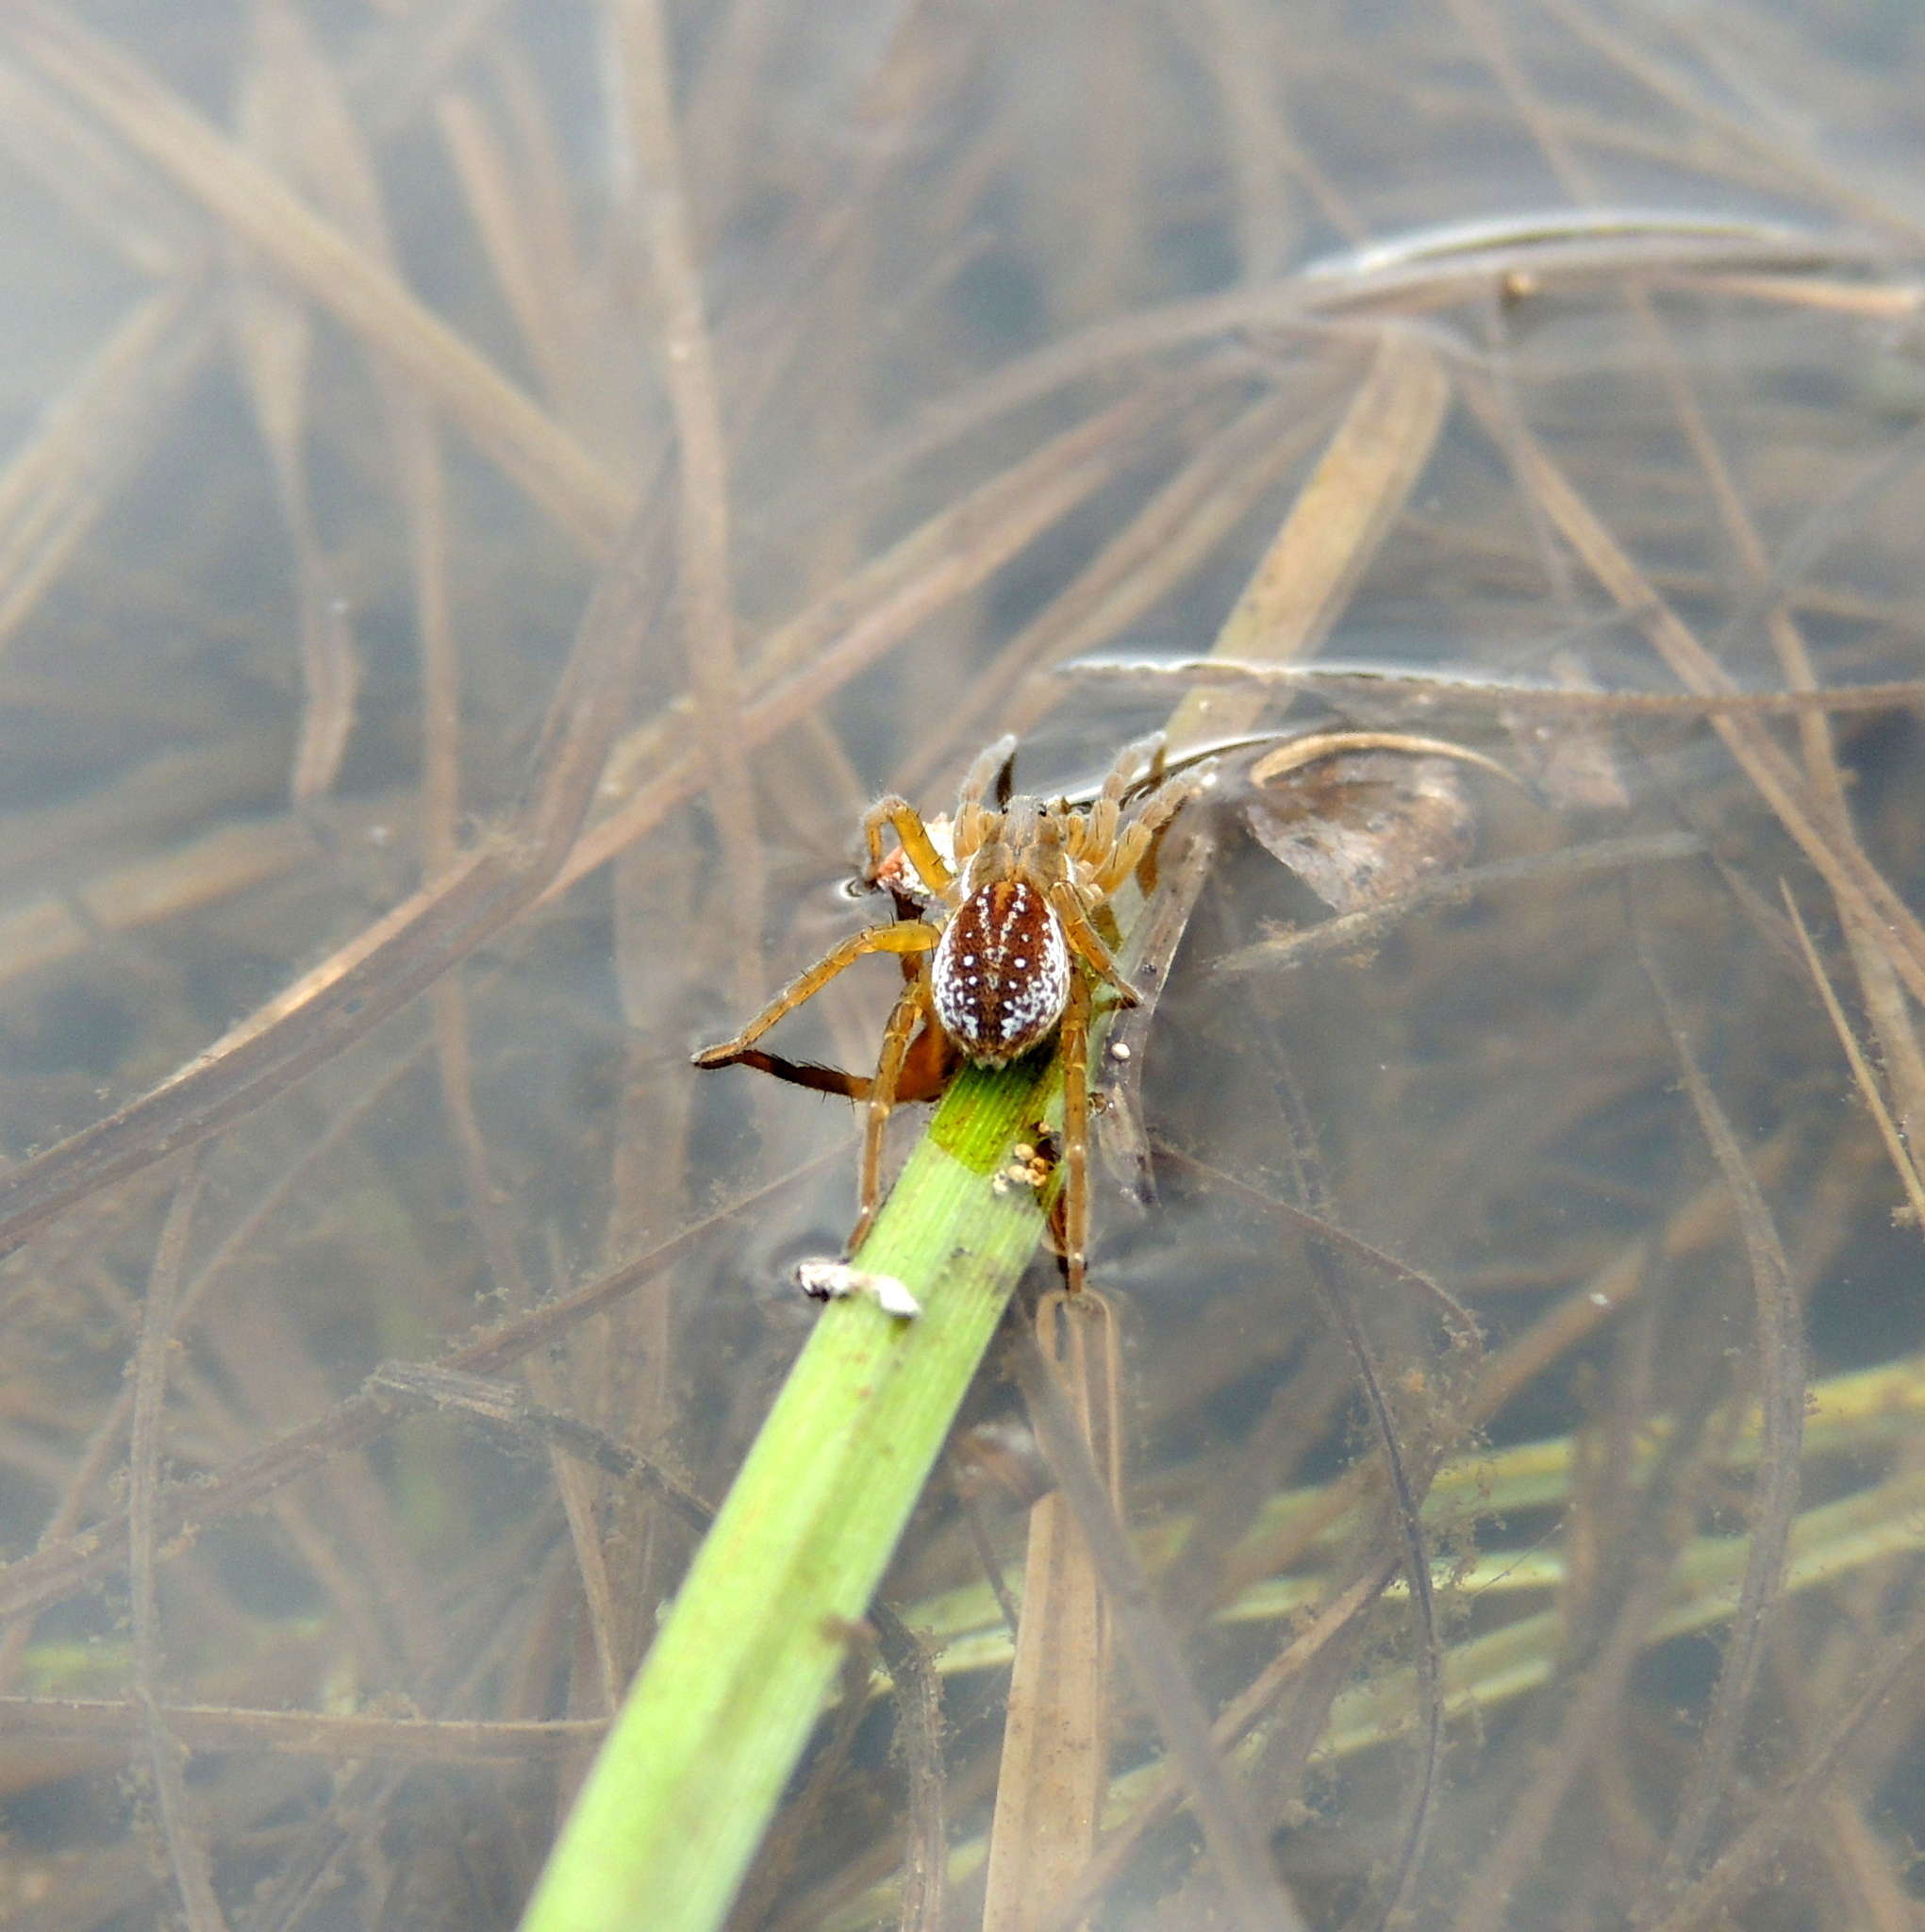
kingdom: Animalia
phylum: Arthropoda
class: Arachnida
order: Araneae
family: Lycosidae
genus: Pirata
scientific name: Pirata piraticus
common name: Pirate otter spider
